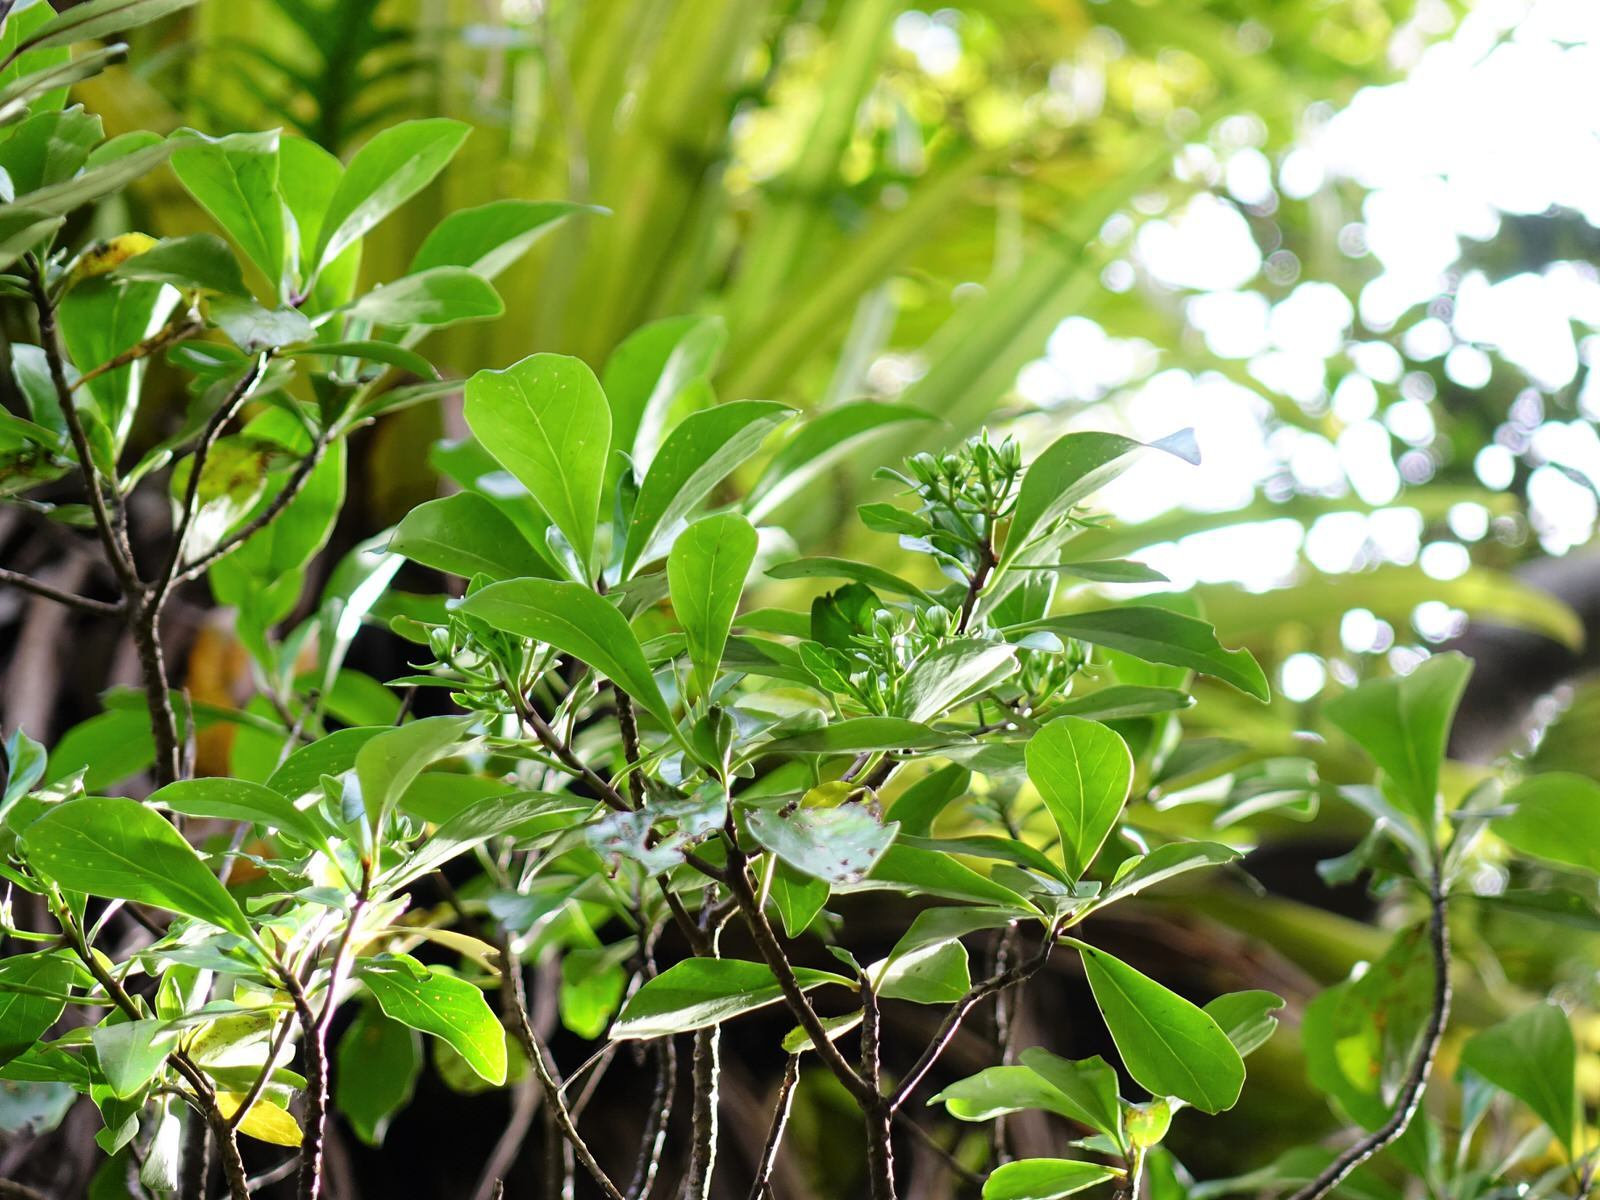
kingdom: Plantae
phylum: Tracheophyta
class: Magnoliopsida
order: Asterales
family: Asteraceae
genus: Brachyglottis
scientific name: Brachyglottis kirkii
